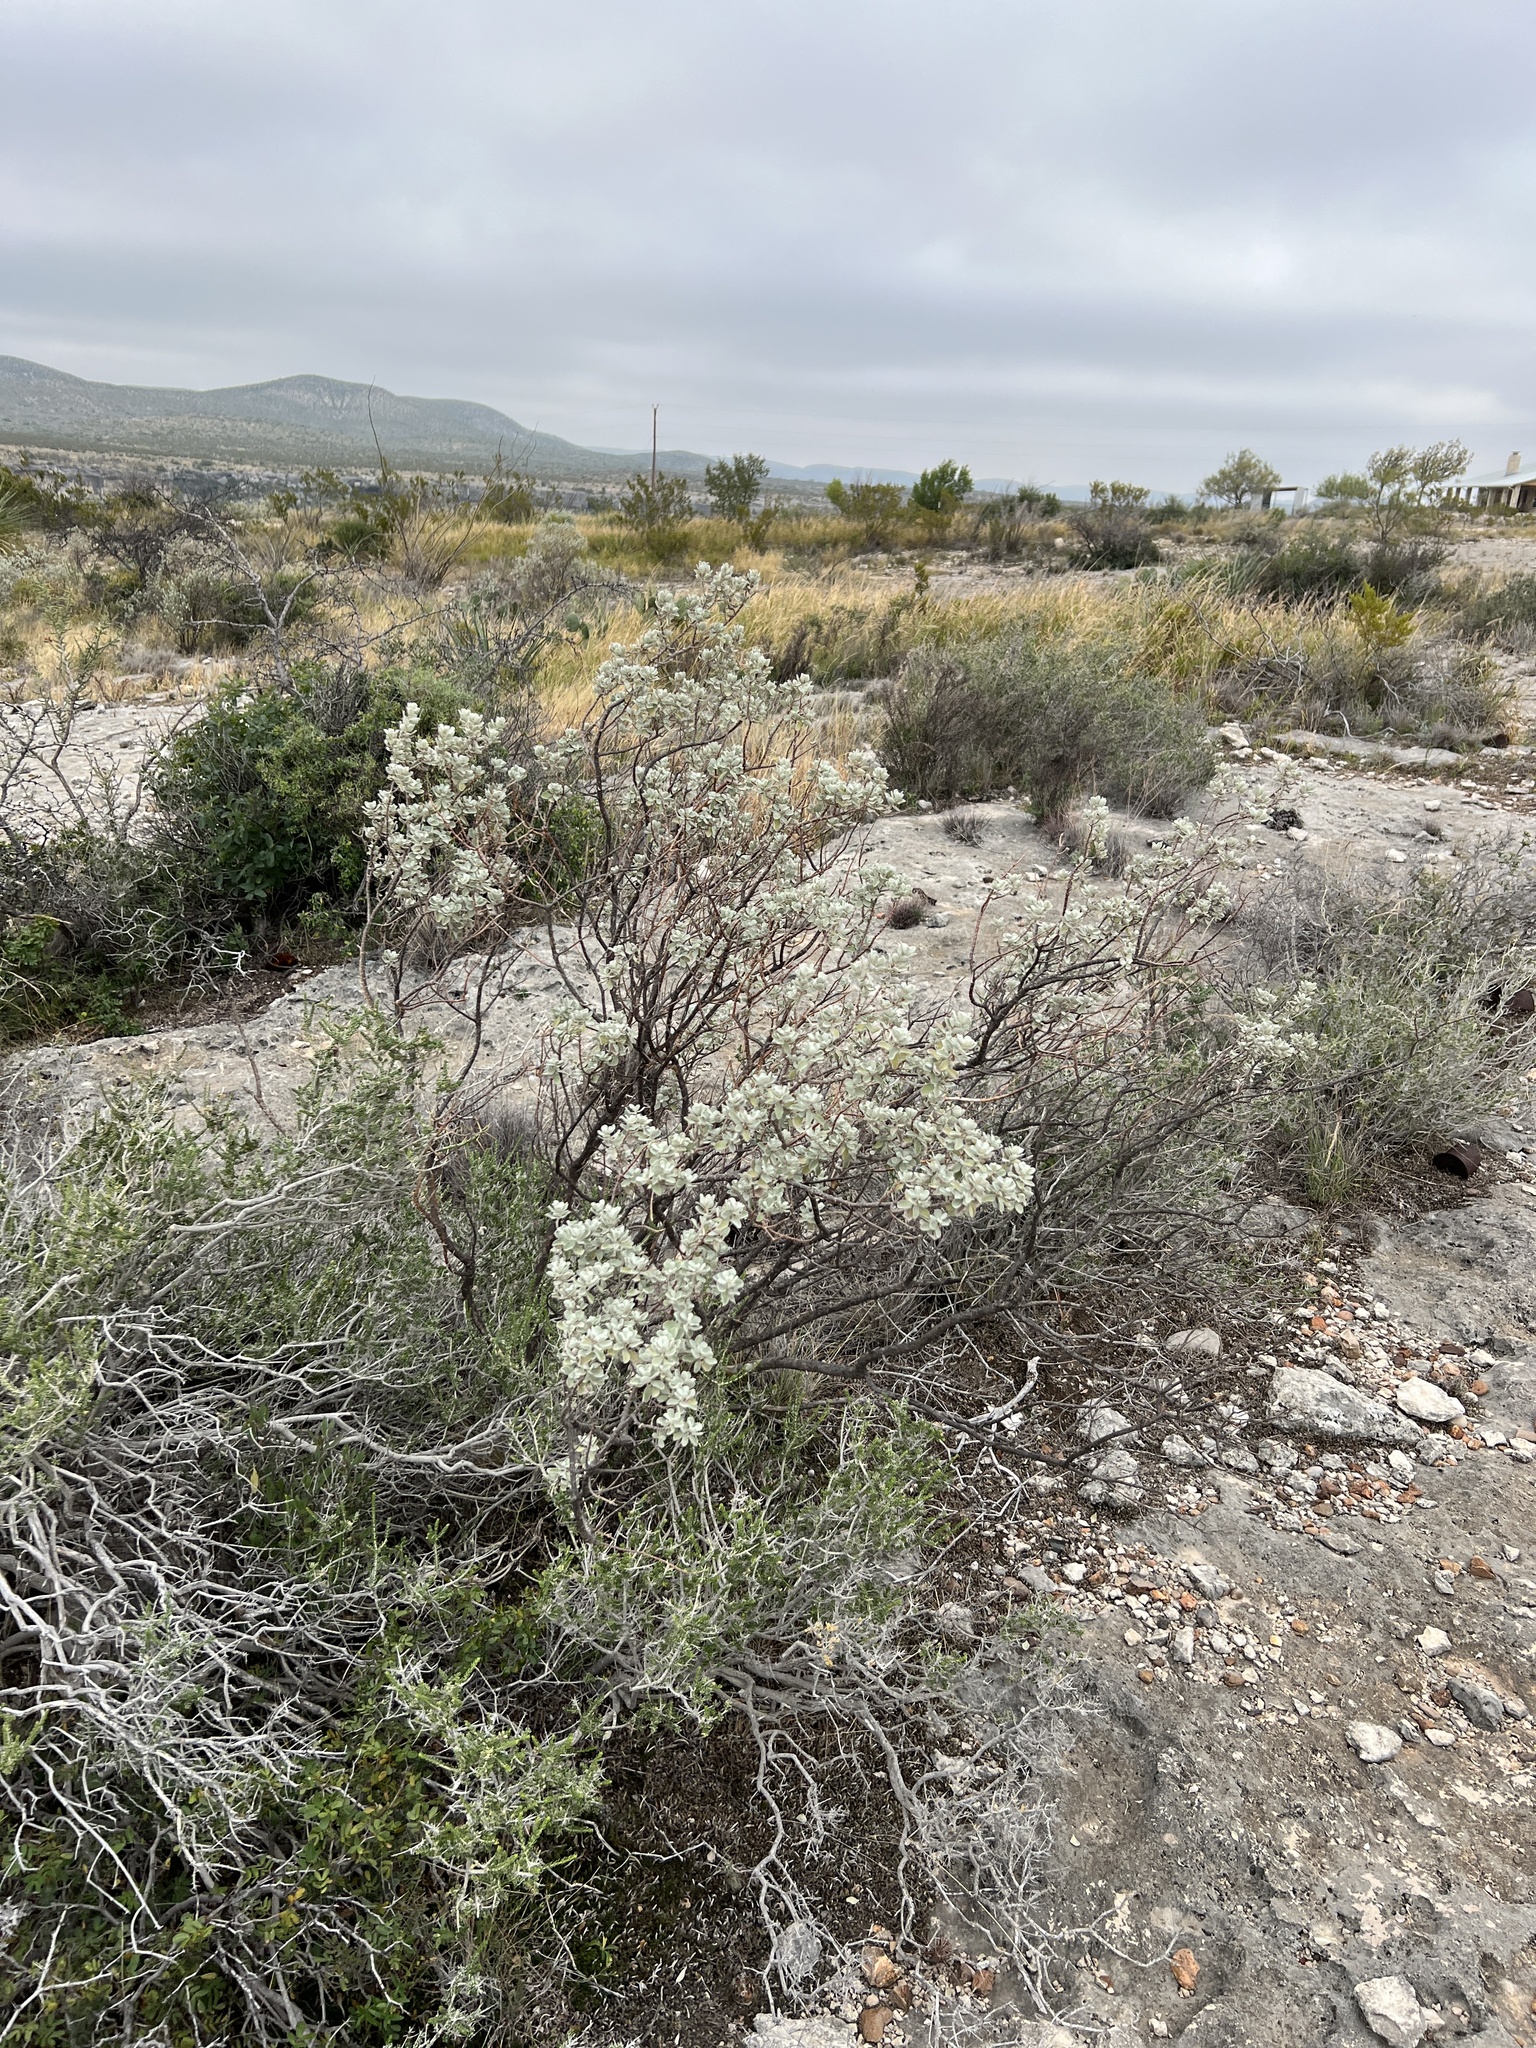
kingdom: Plantae
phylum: Tracheophyta
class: Magnoliopsida
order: Lamiales
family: Scrophulariaceae
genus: Leucophyllum
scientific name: Leucophyllum frutescens
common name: Texas silverleaf
